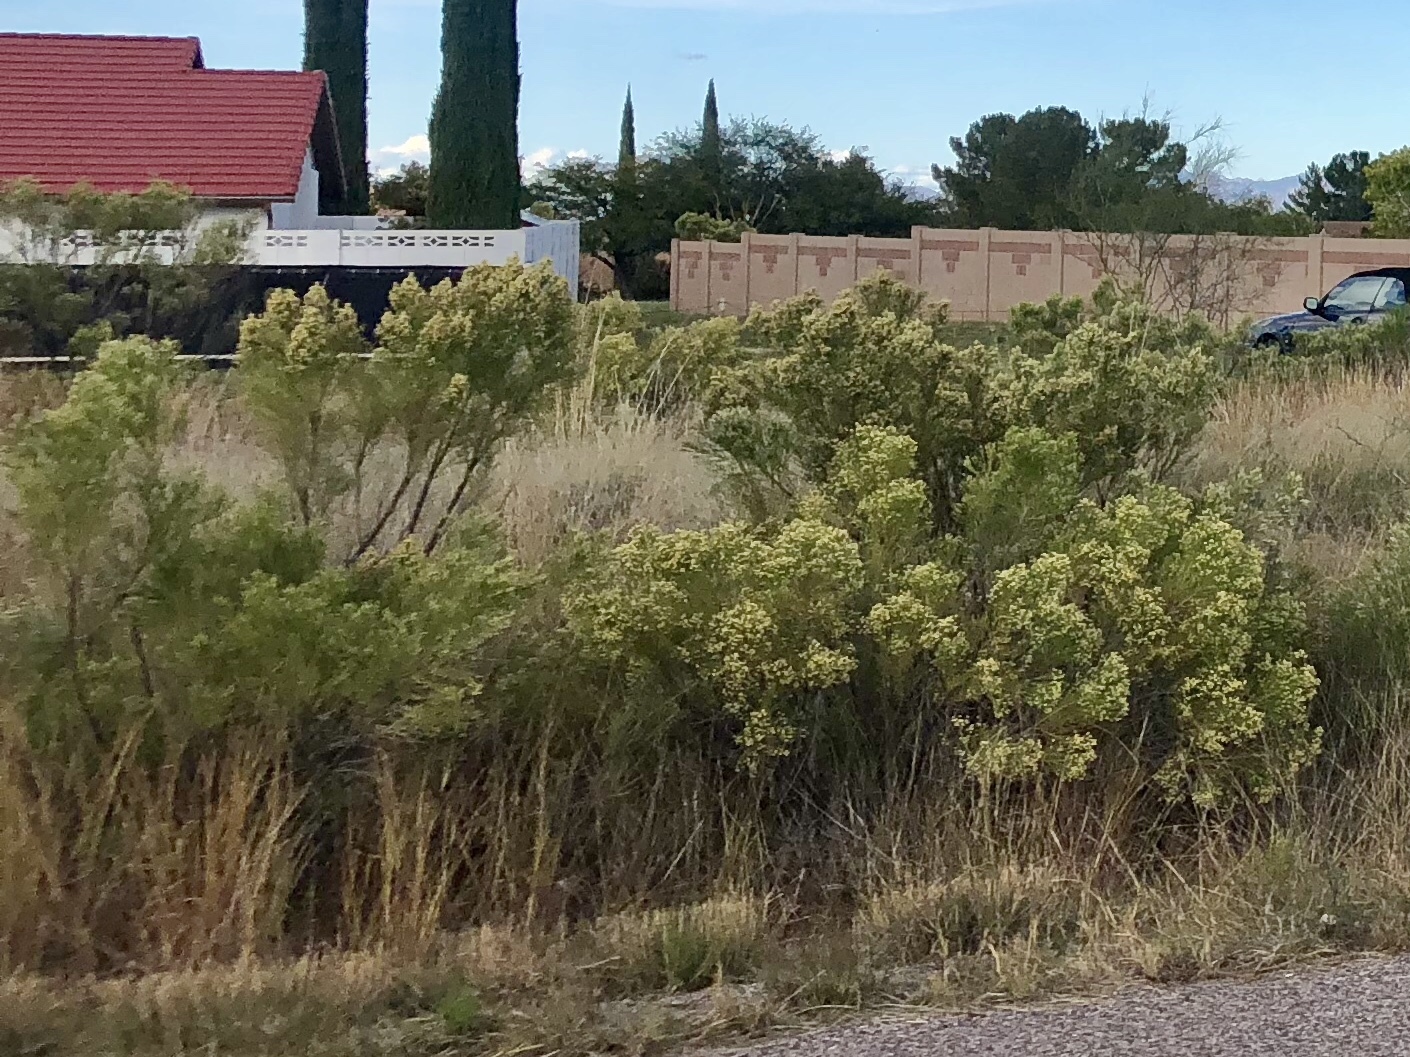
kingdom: Plantae
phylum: Tracheophyta
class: Magnoliopsida
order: Asterales
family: Asteraceae
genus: Baccharis
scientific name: Baccharis sarothroides
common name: Desert-broom
